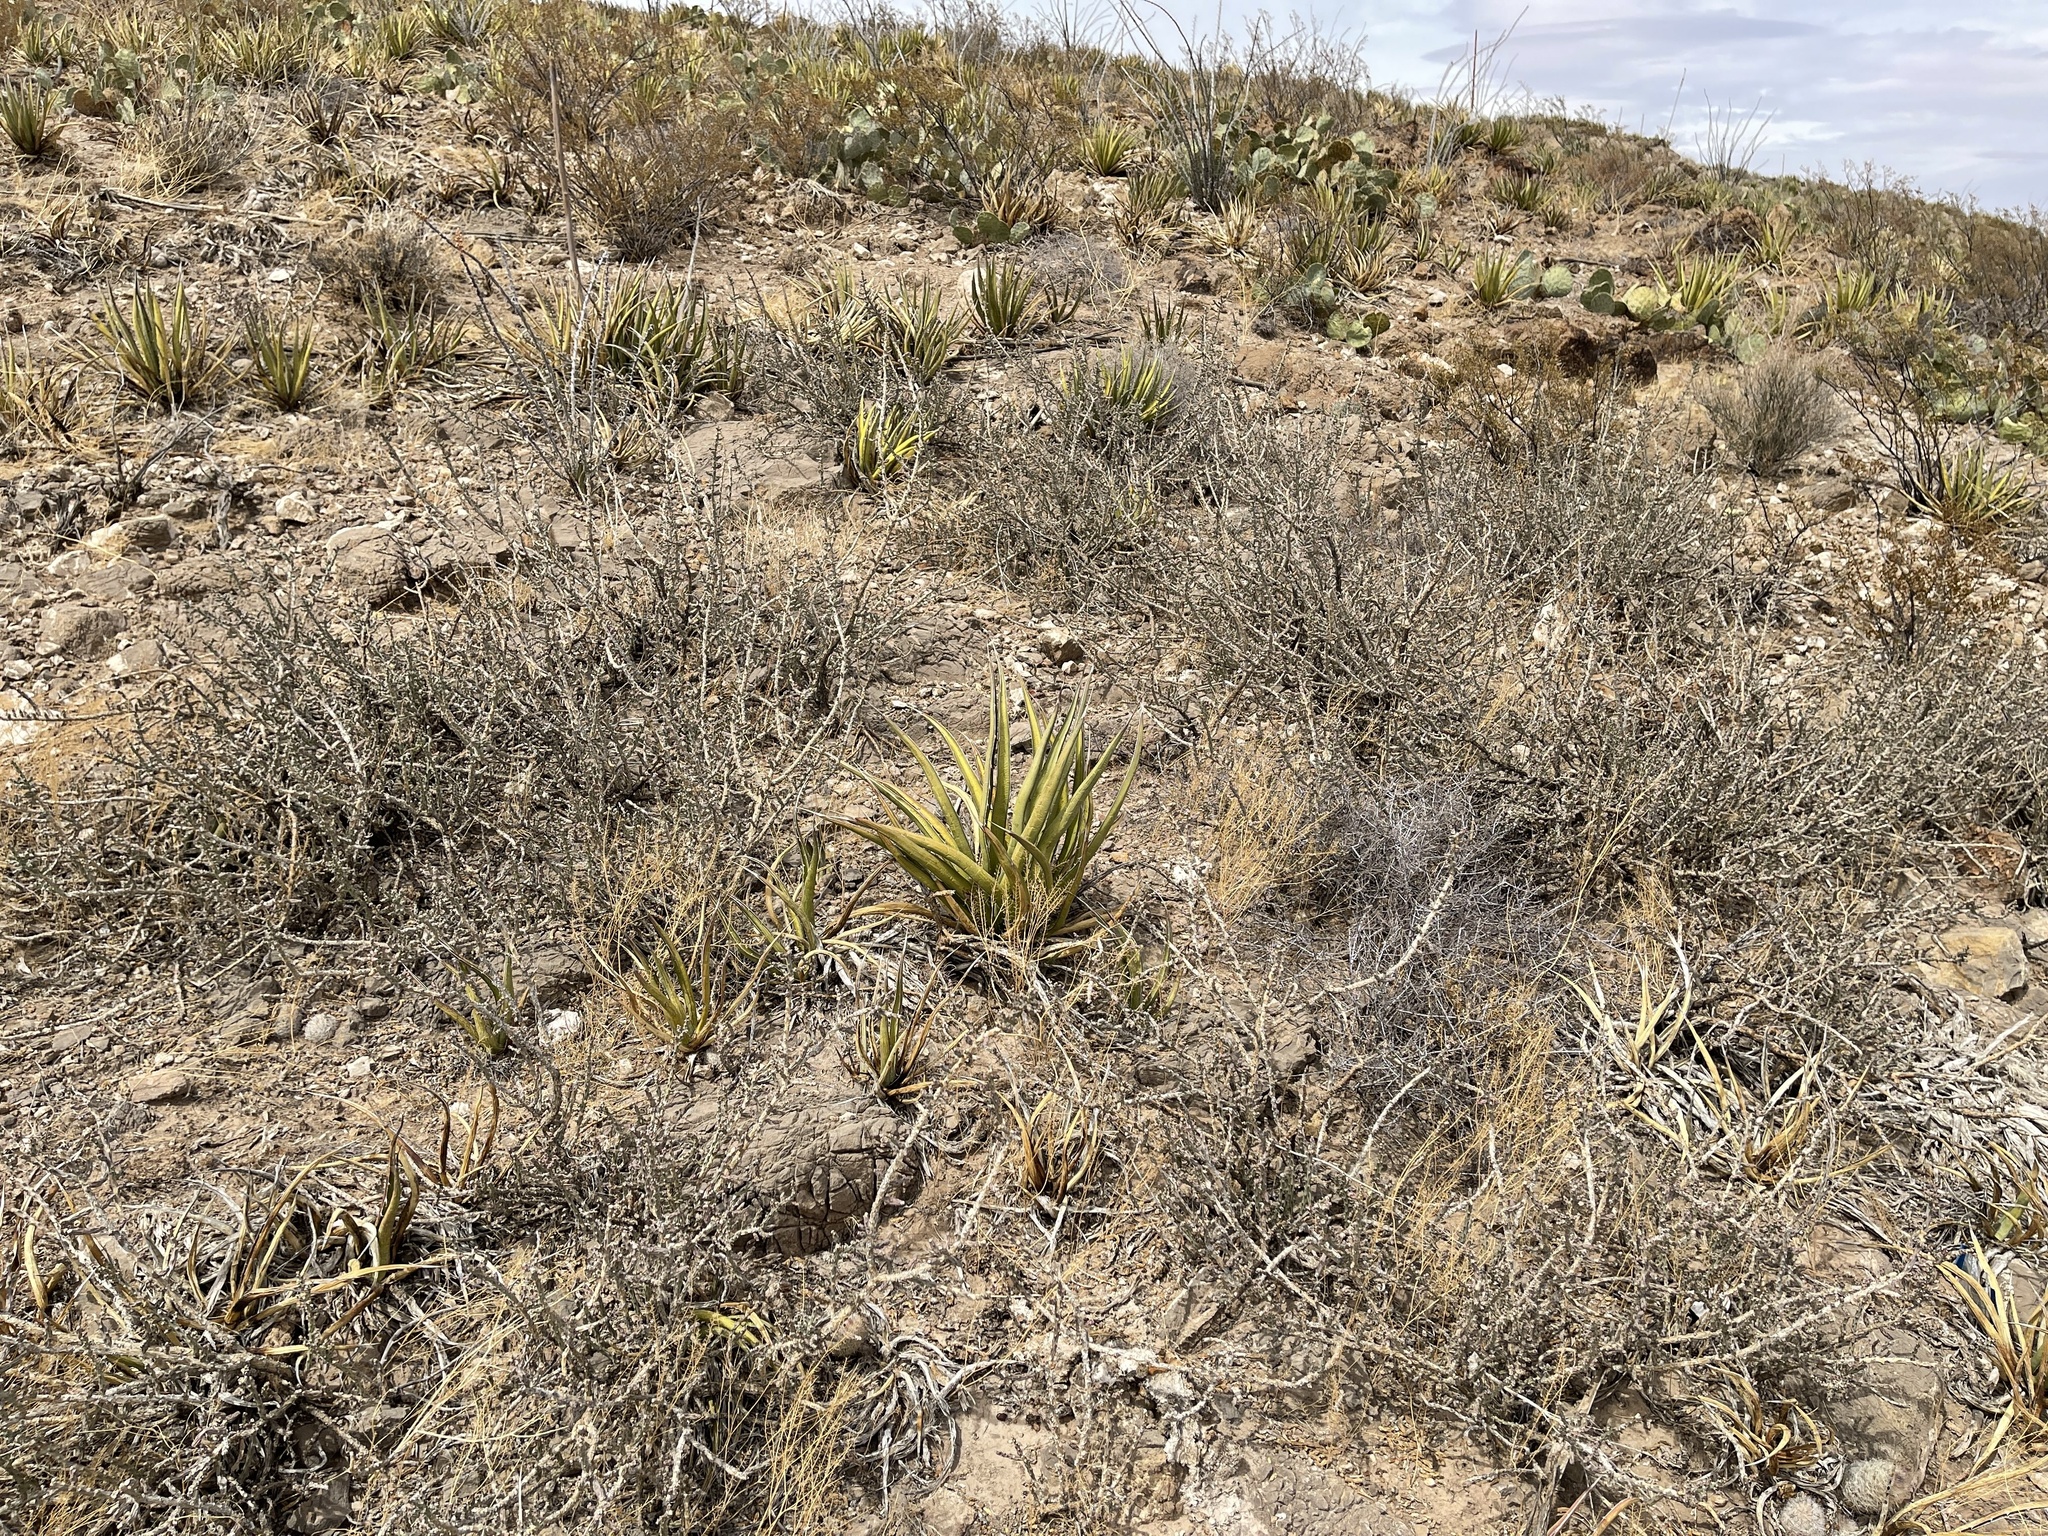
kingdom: Plantae
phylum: Tracheophyta
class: Magnoliopsida
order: Caryophyllales
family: Cactaceae
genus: Cylindropuntia
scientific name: Cylindropuntia leptocaulis
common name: Christmas cactus
